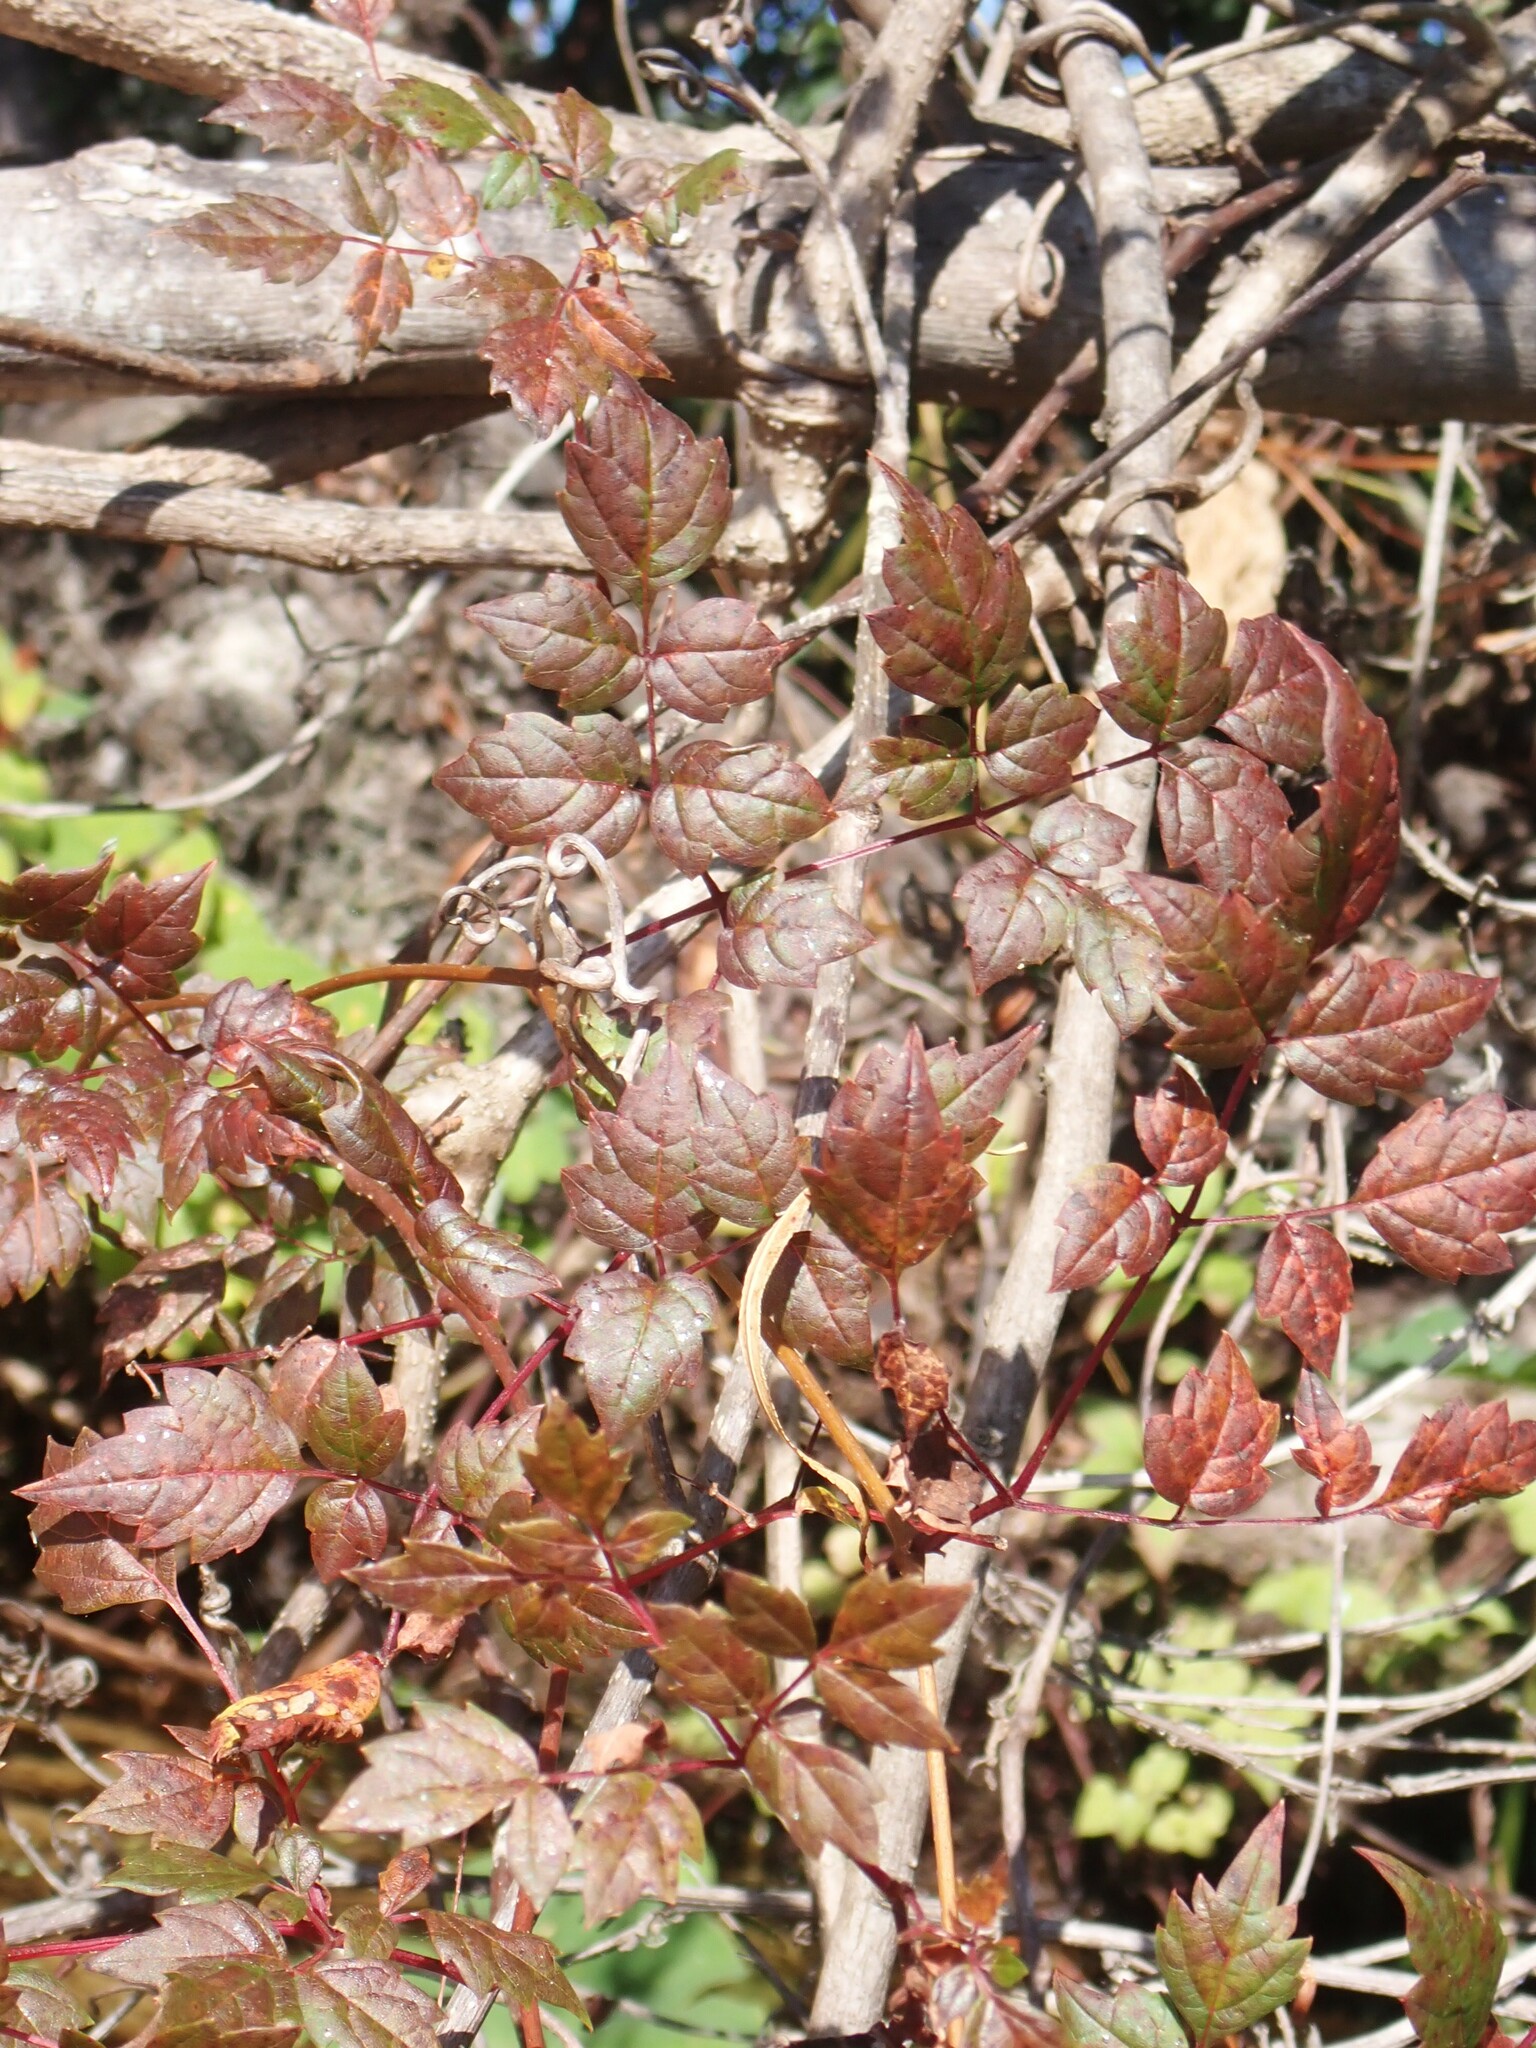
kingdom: Plantae
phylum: Tracheophyta
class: Magnoliopsida
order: Vitales
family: Vitaceae
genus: Nekemias
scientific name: Nekemias arborea
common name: Peppervine
